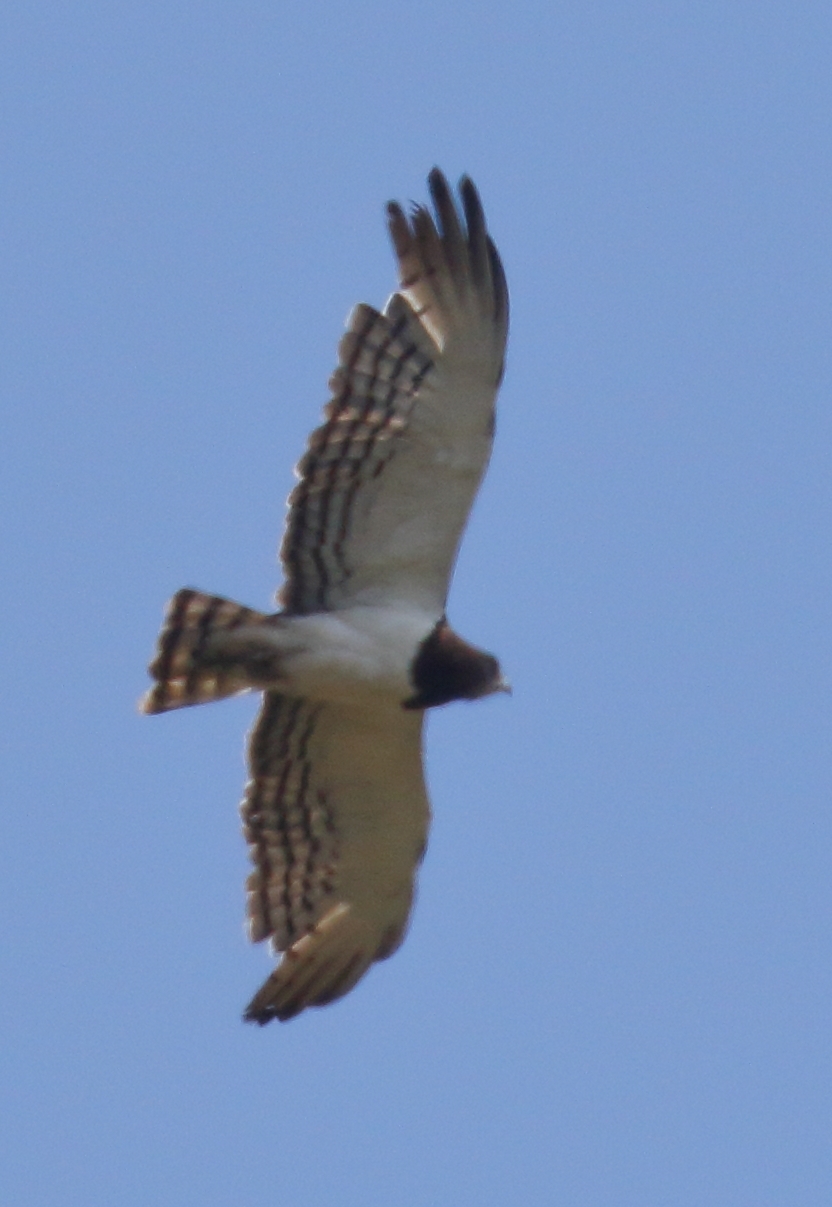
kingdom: Animalia
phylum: Chordata
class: Aves
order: Accipitriformes
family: Accipitridae
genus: Circaetus
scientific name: Circaetus pectoralis
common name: Black-chested snake eagle
